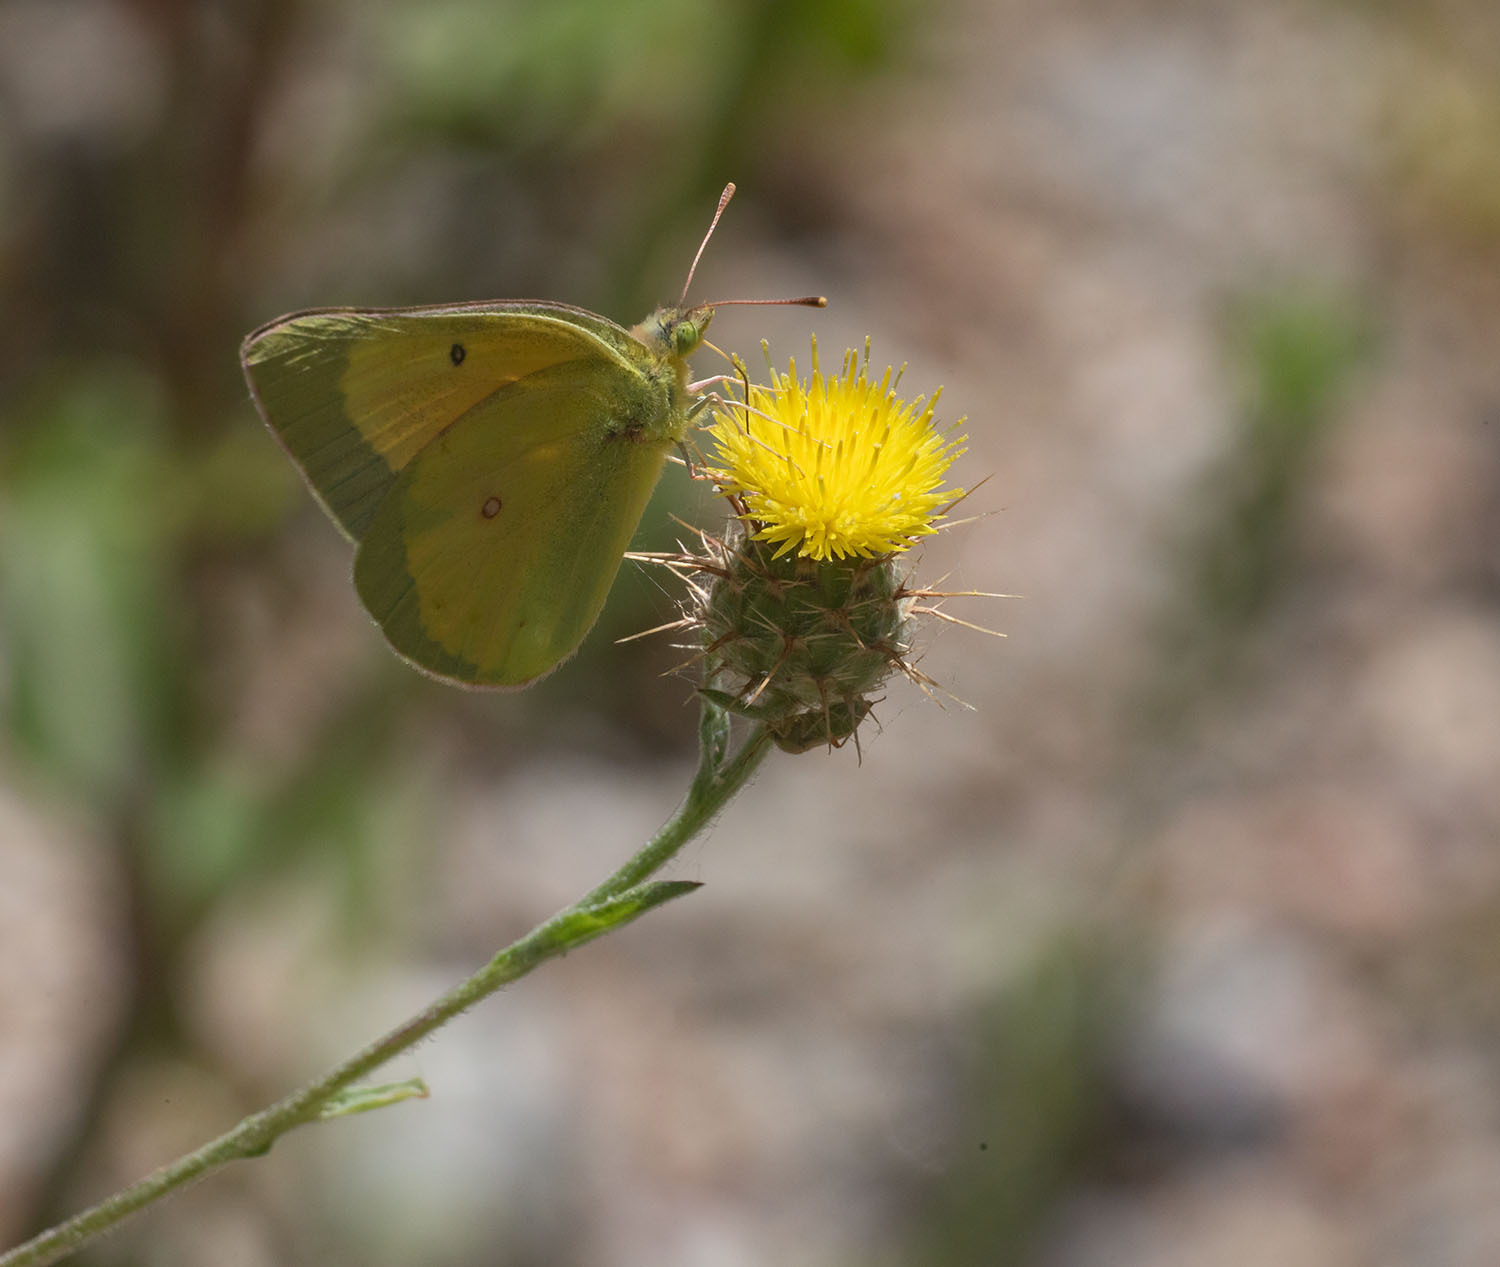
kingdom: Animalia
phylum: Arthropoda
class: Insecta
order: Lepidoptera
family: Pieridae
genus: Colias
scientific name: Colias eurytheme
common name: Alfalfa butterfly
